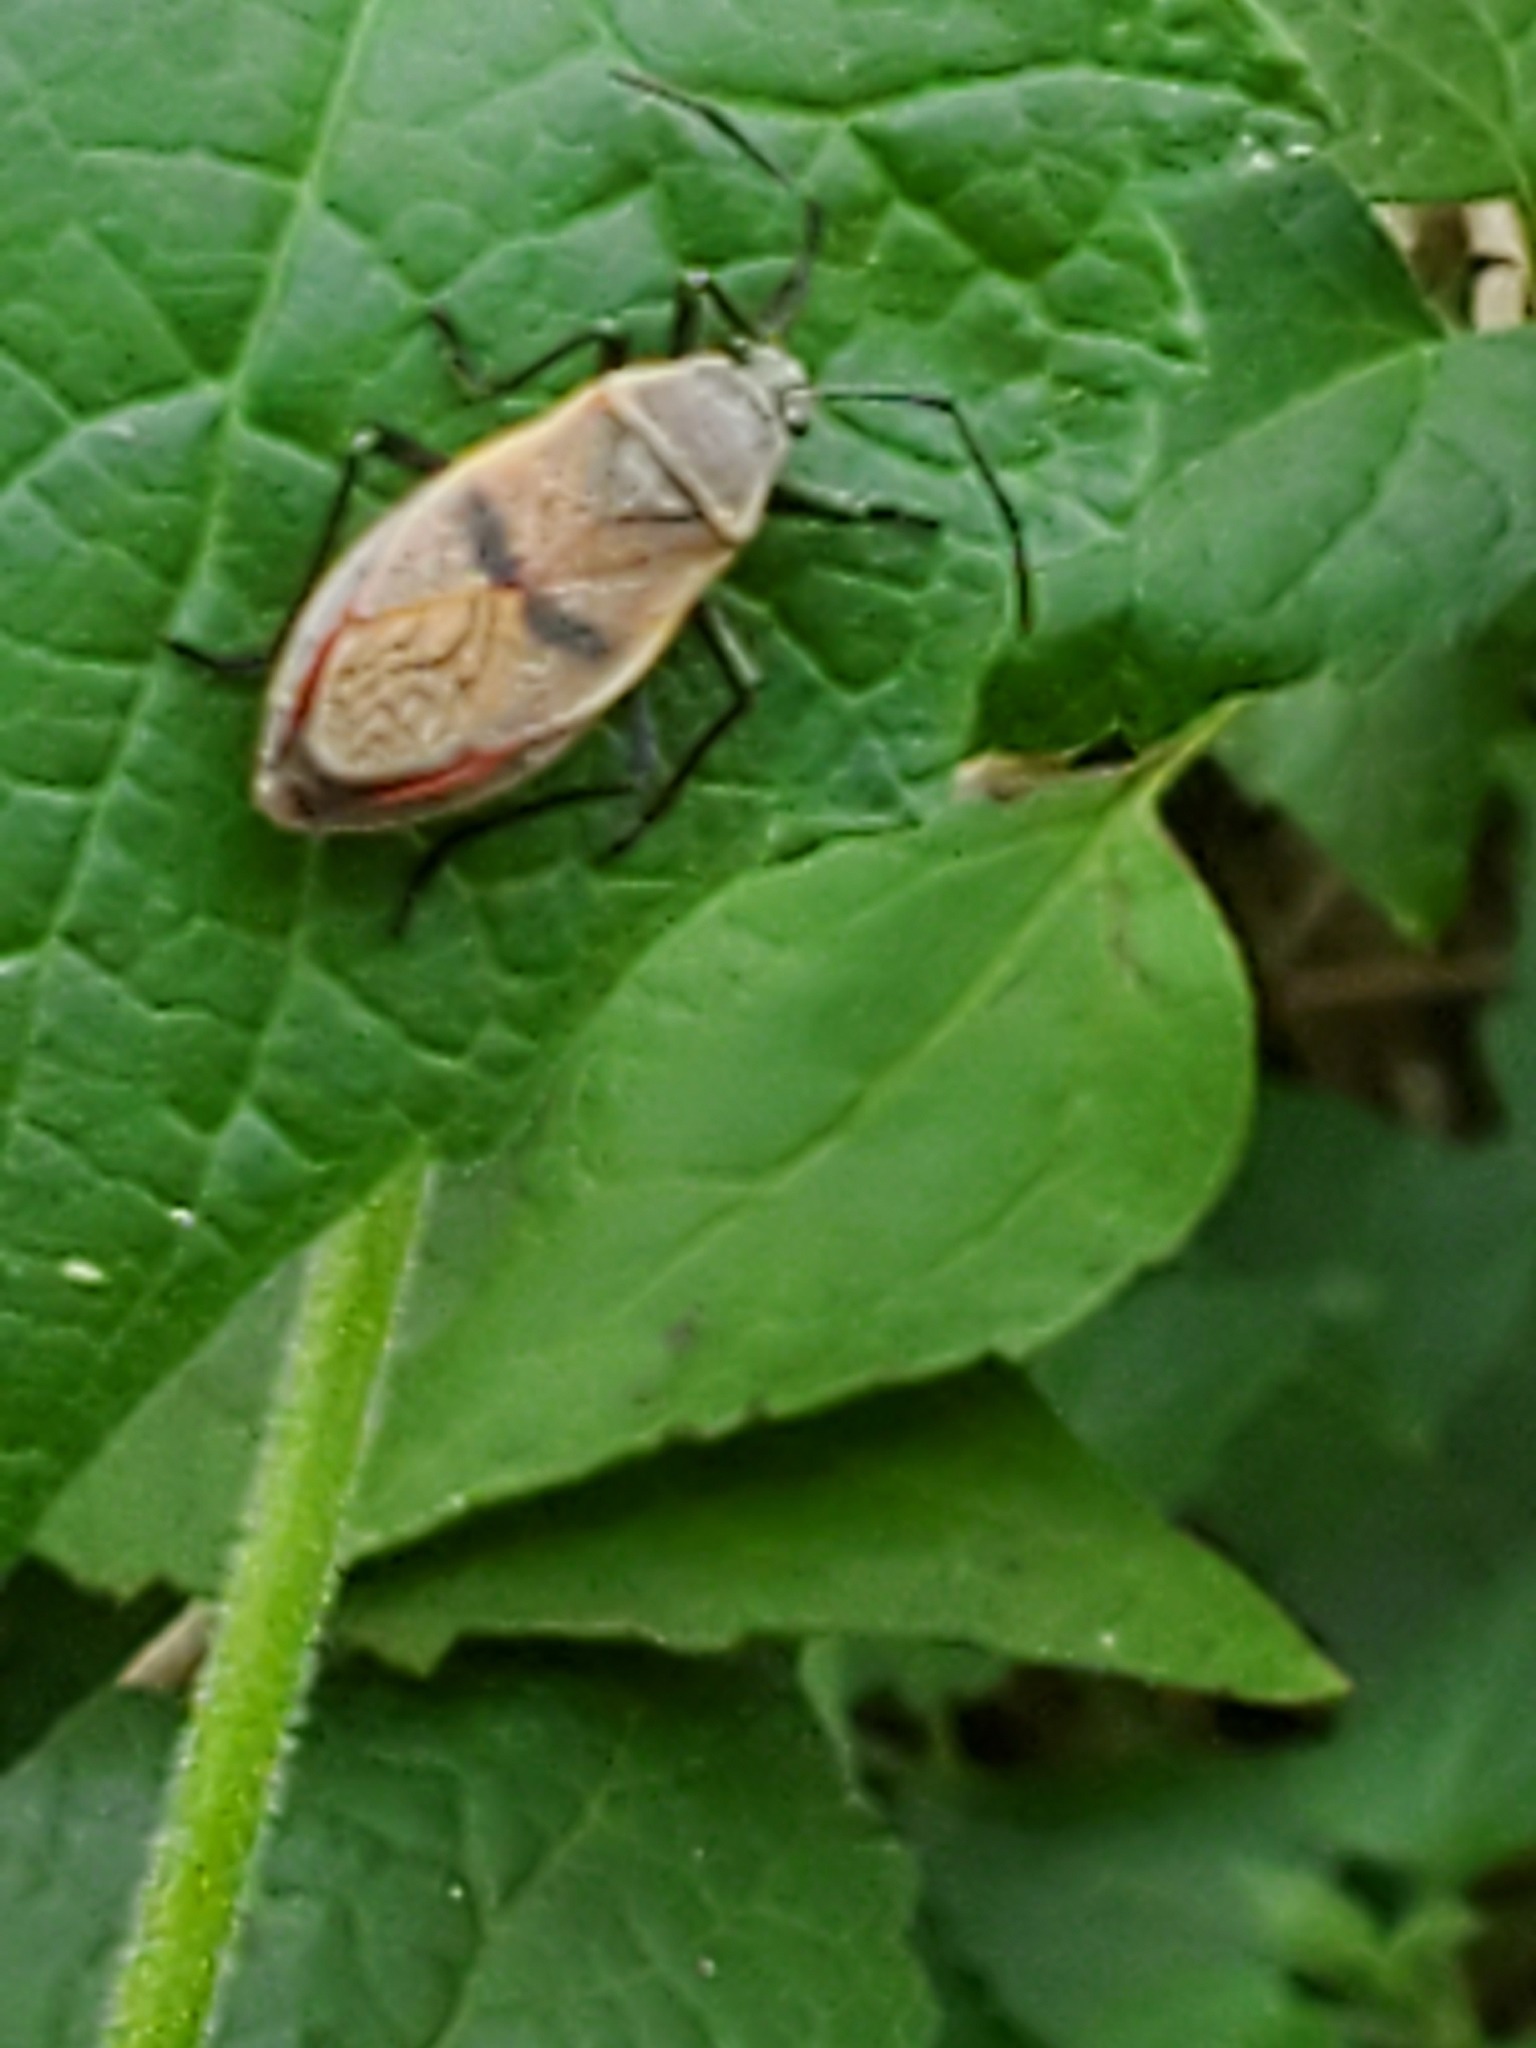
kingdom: Animalia
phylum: Arthropoda
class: Insecta
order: Hemiptera
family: Largidae
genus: Largus
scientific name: Largus maculatus
